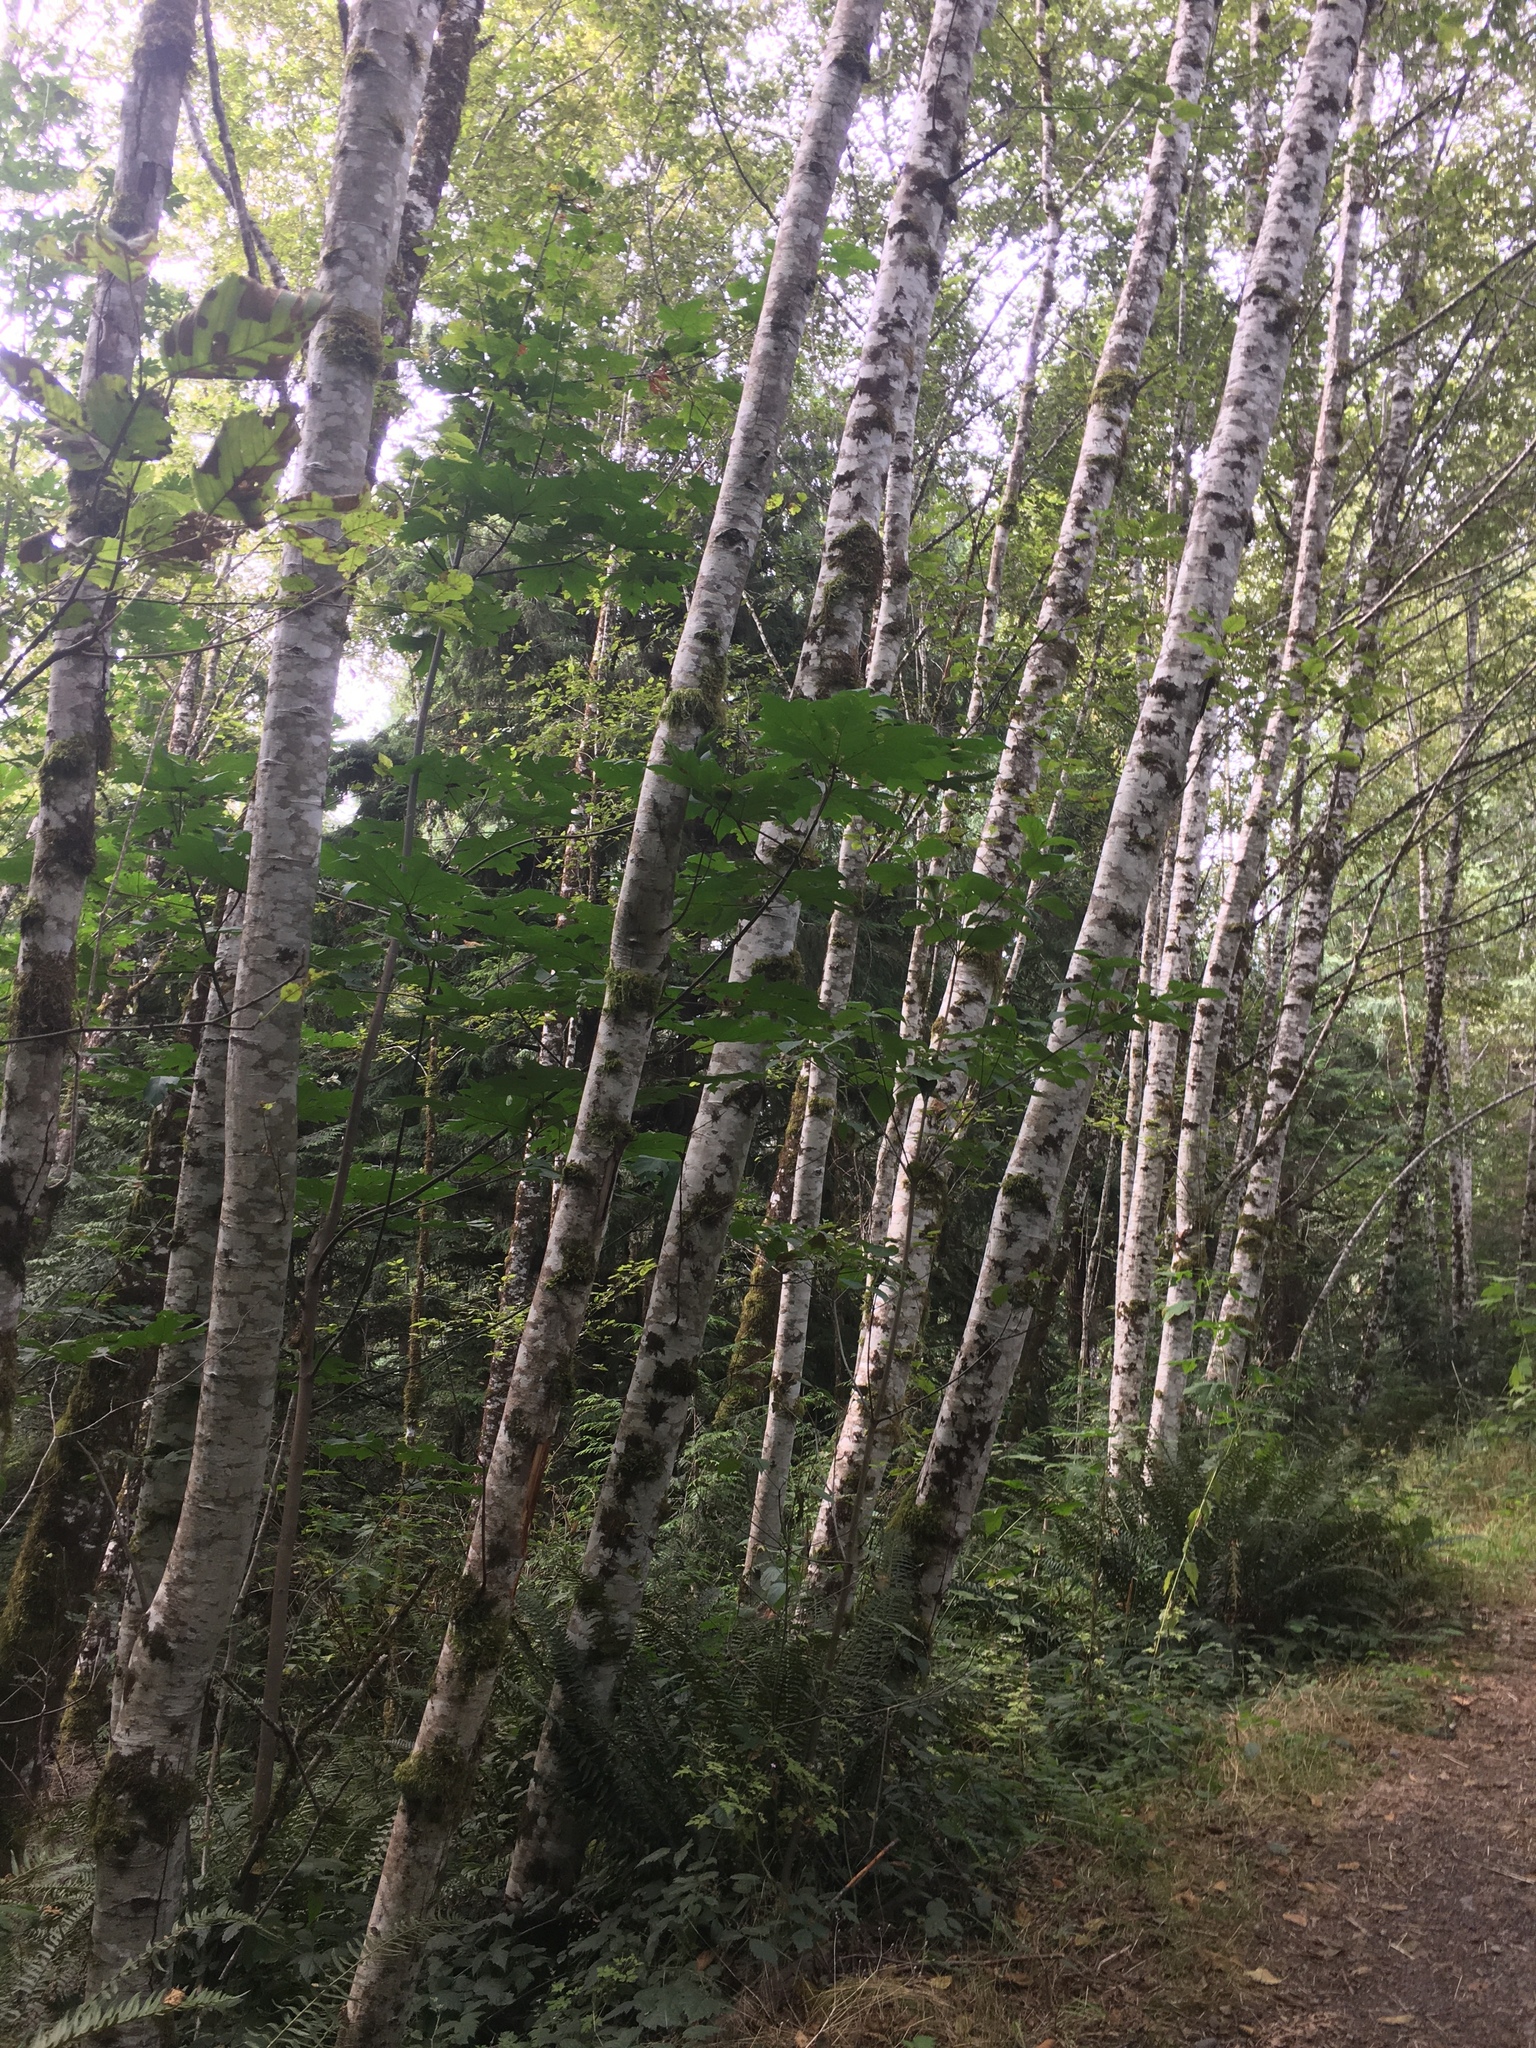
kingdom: Plantae
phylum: Tracheophyta
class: Magnoliopsida
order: Fagales
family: Betulaceae
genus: Alnus
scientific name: Alnus rubra
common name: Red alder
